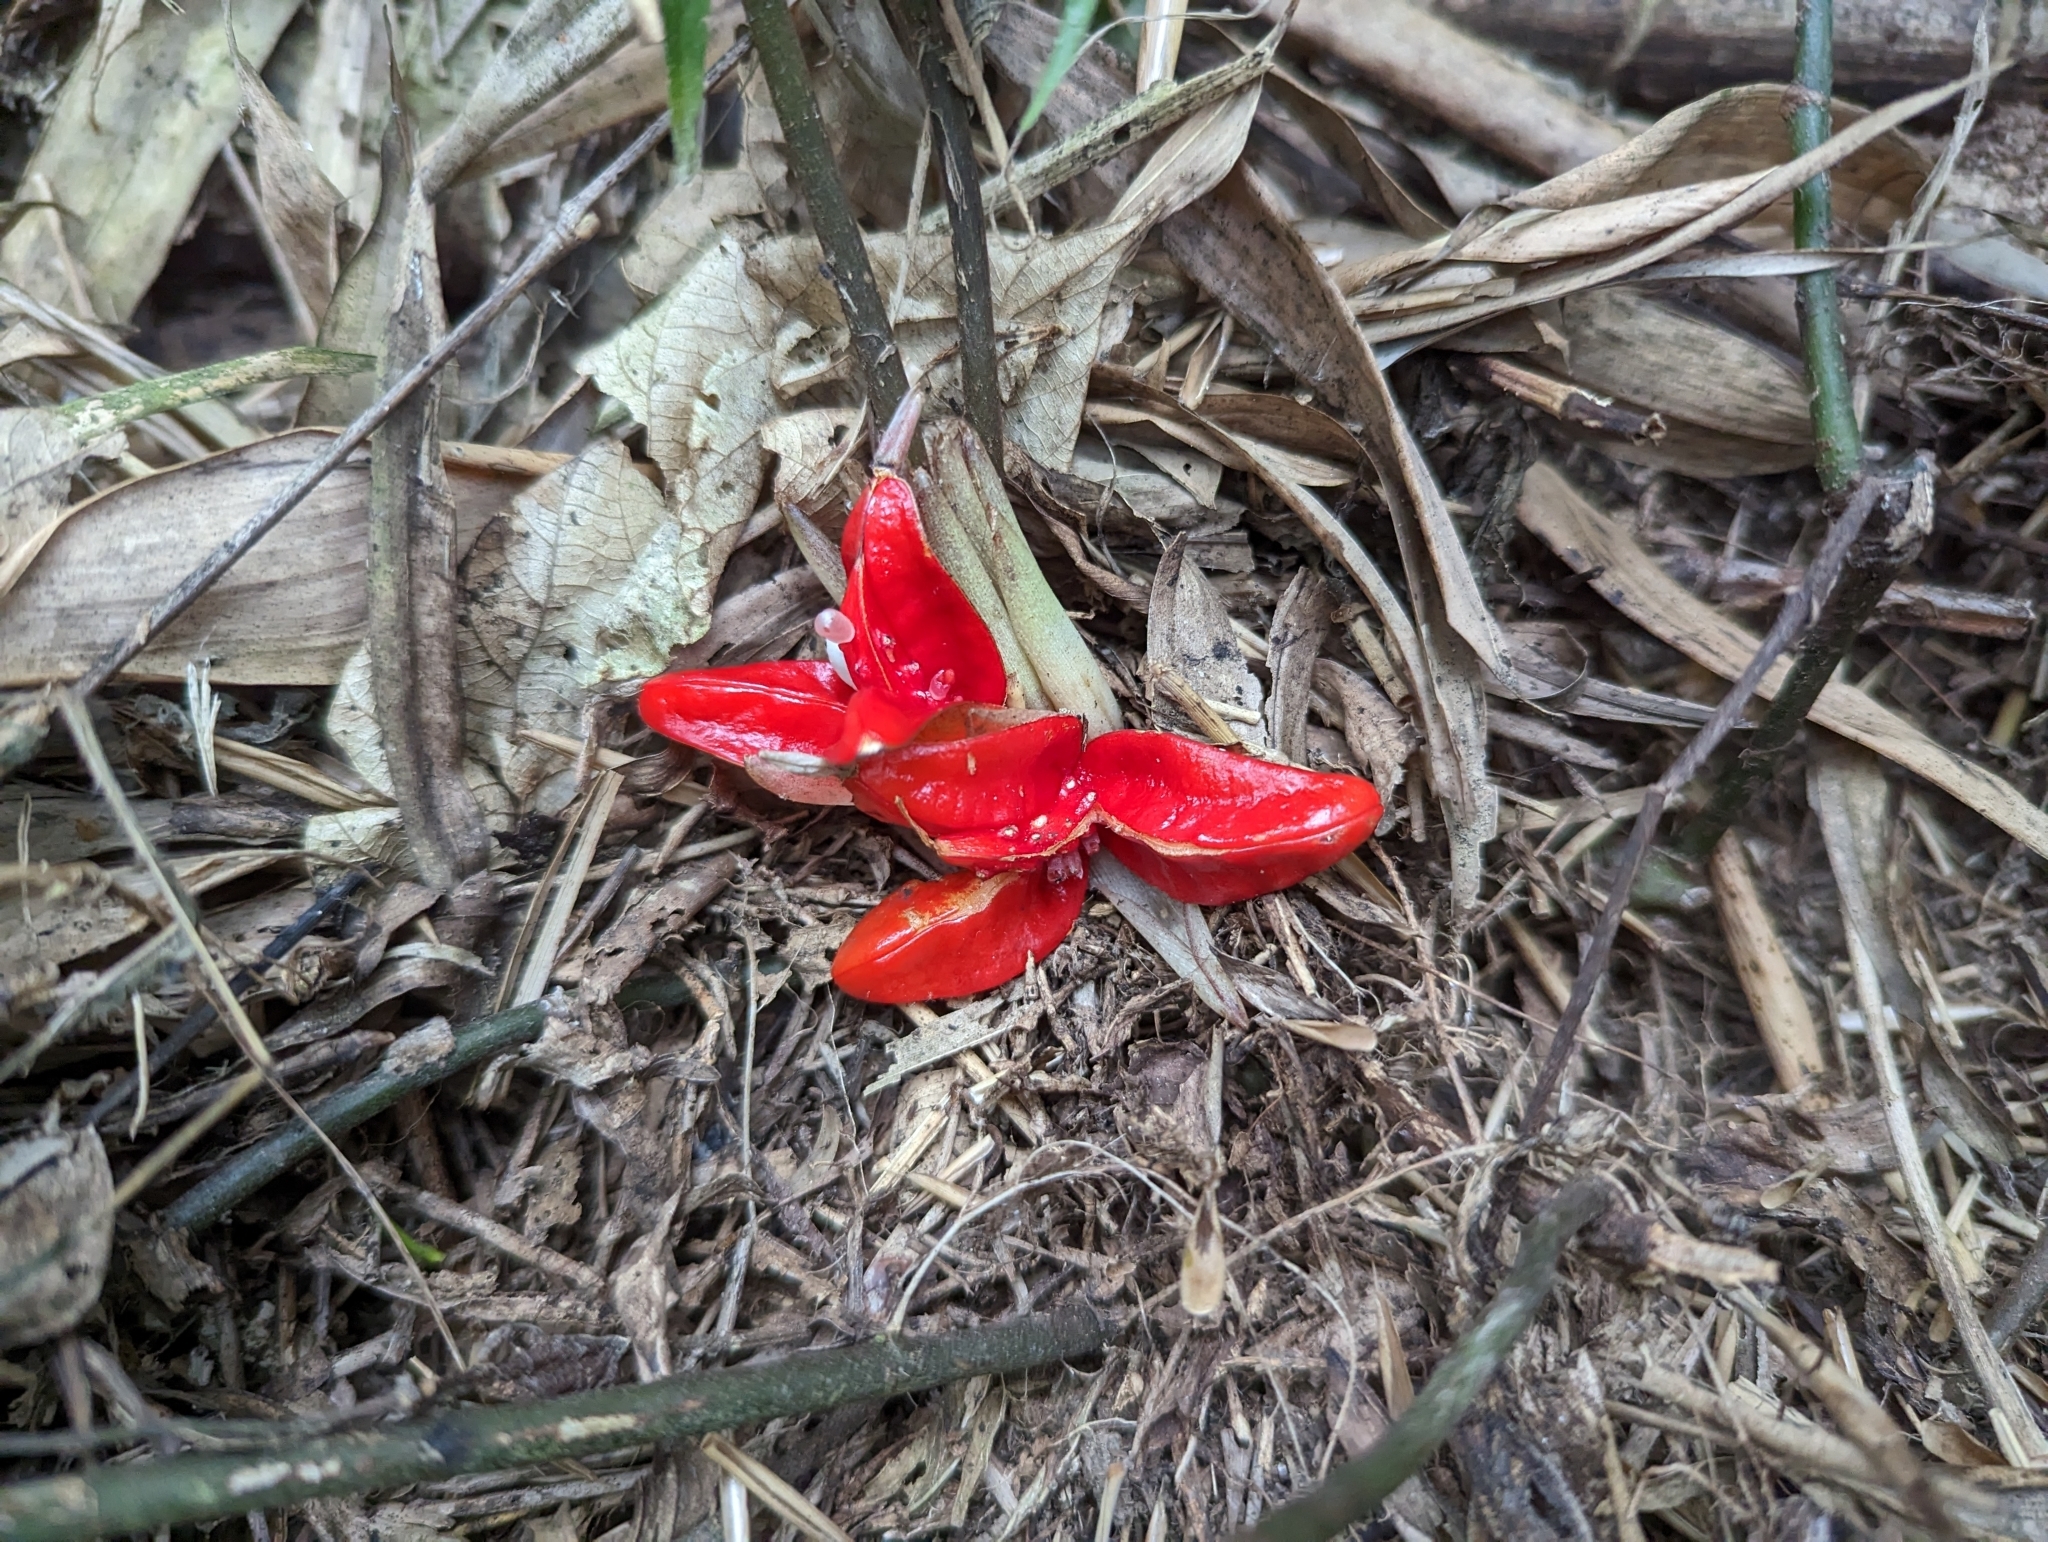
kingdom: Plantae
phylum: Tracheophyta
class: Liliopsida
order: Zingiberales
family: Zingiberaceae
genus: Zingiber
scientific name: Zingiber kawagoii
